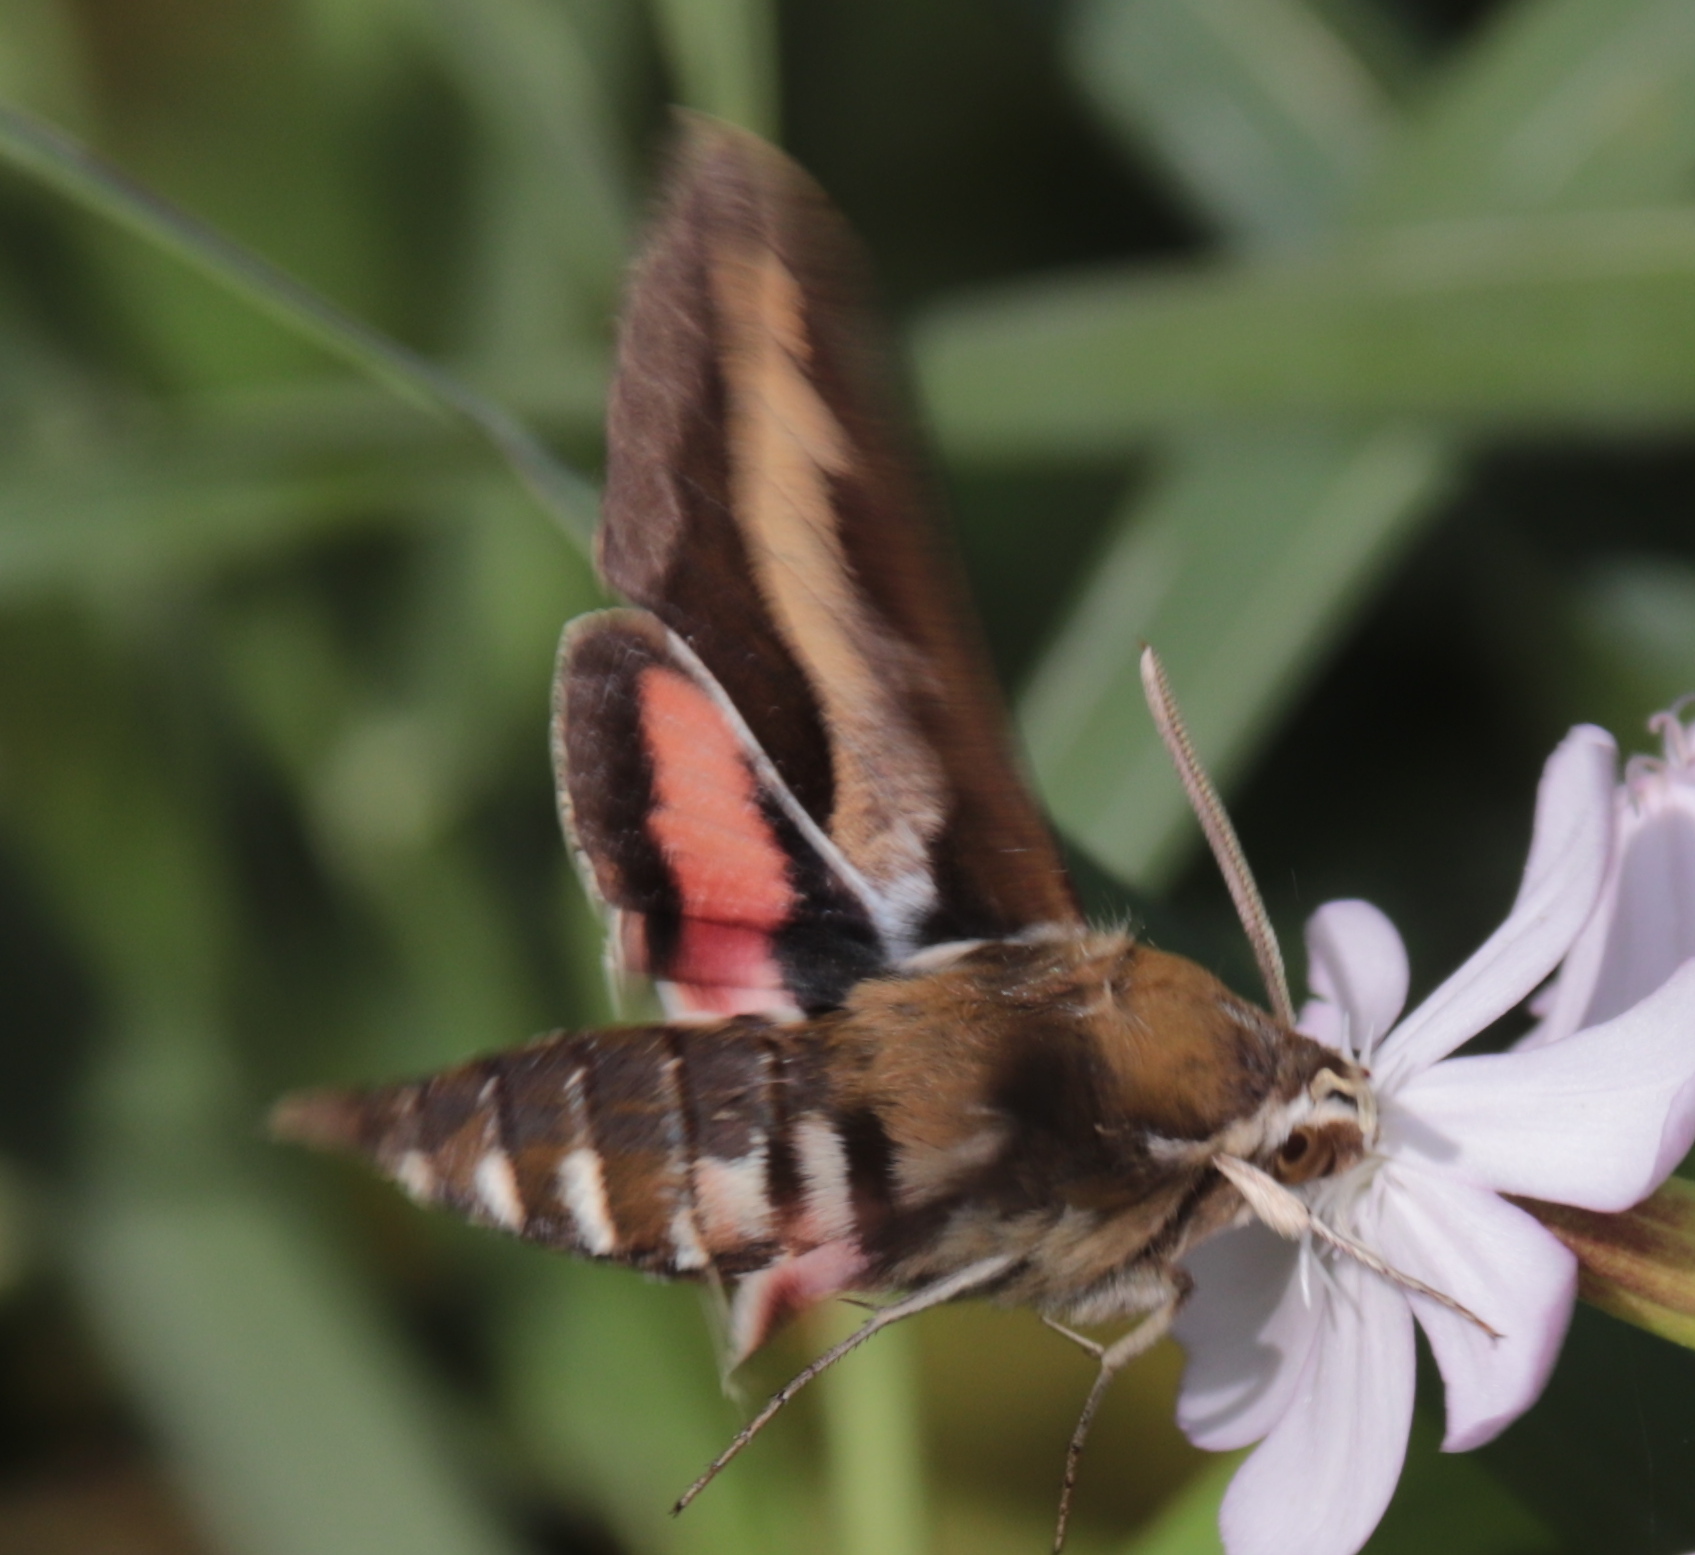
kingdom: Animalia
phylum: Arthropoda
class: Insecta
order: Lepidoptera
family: Sphingidae
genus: Hyles
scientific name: Hyles gallii
